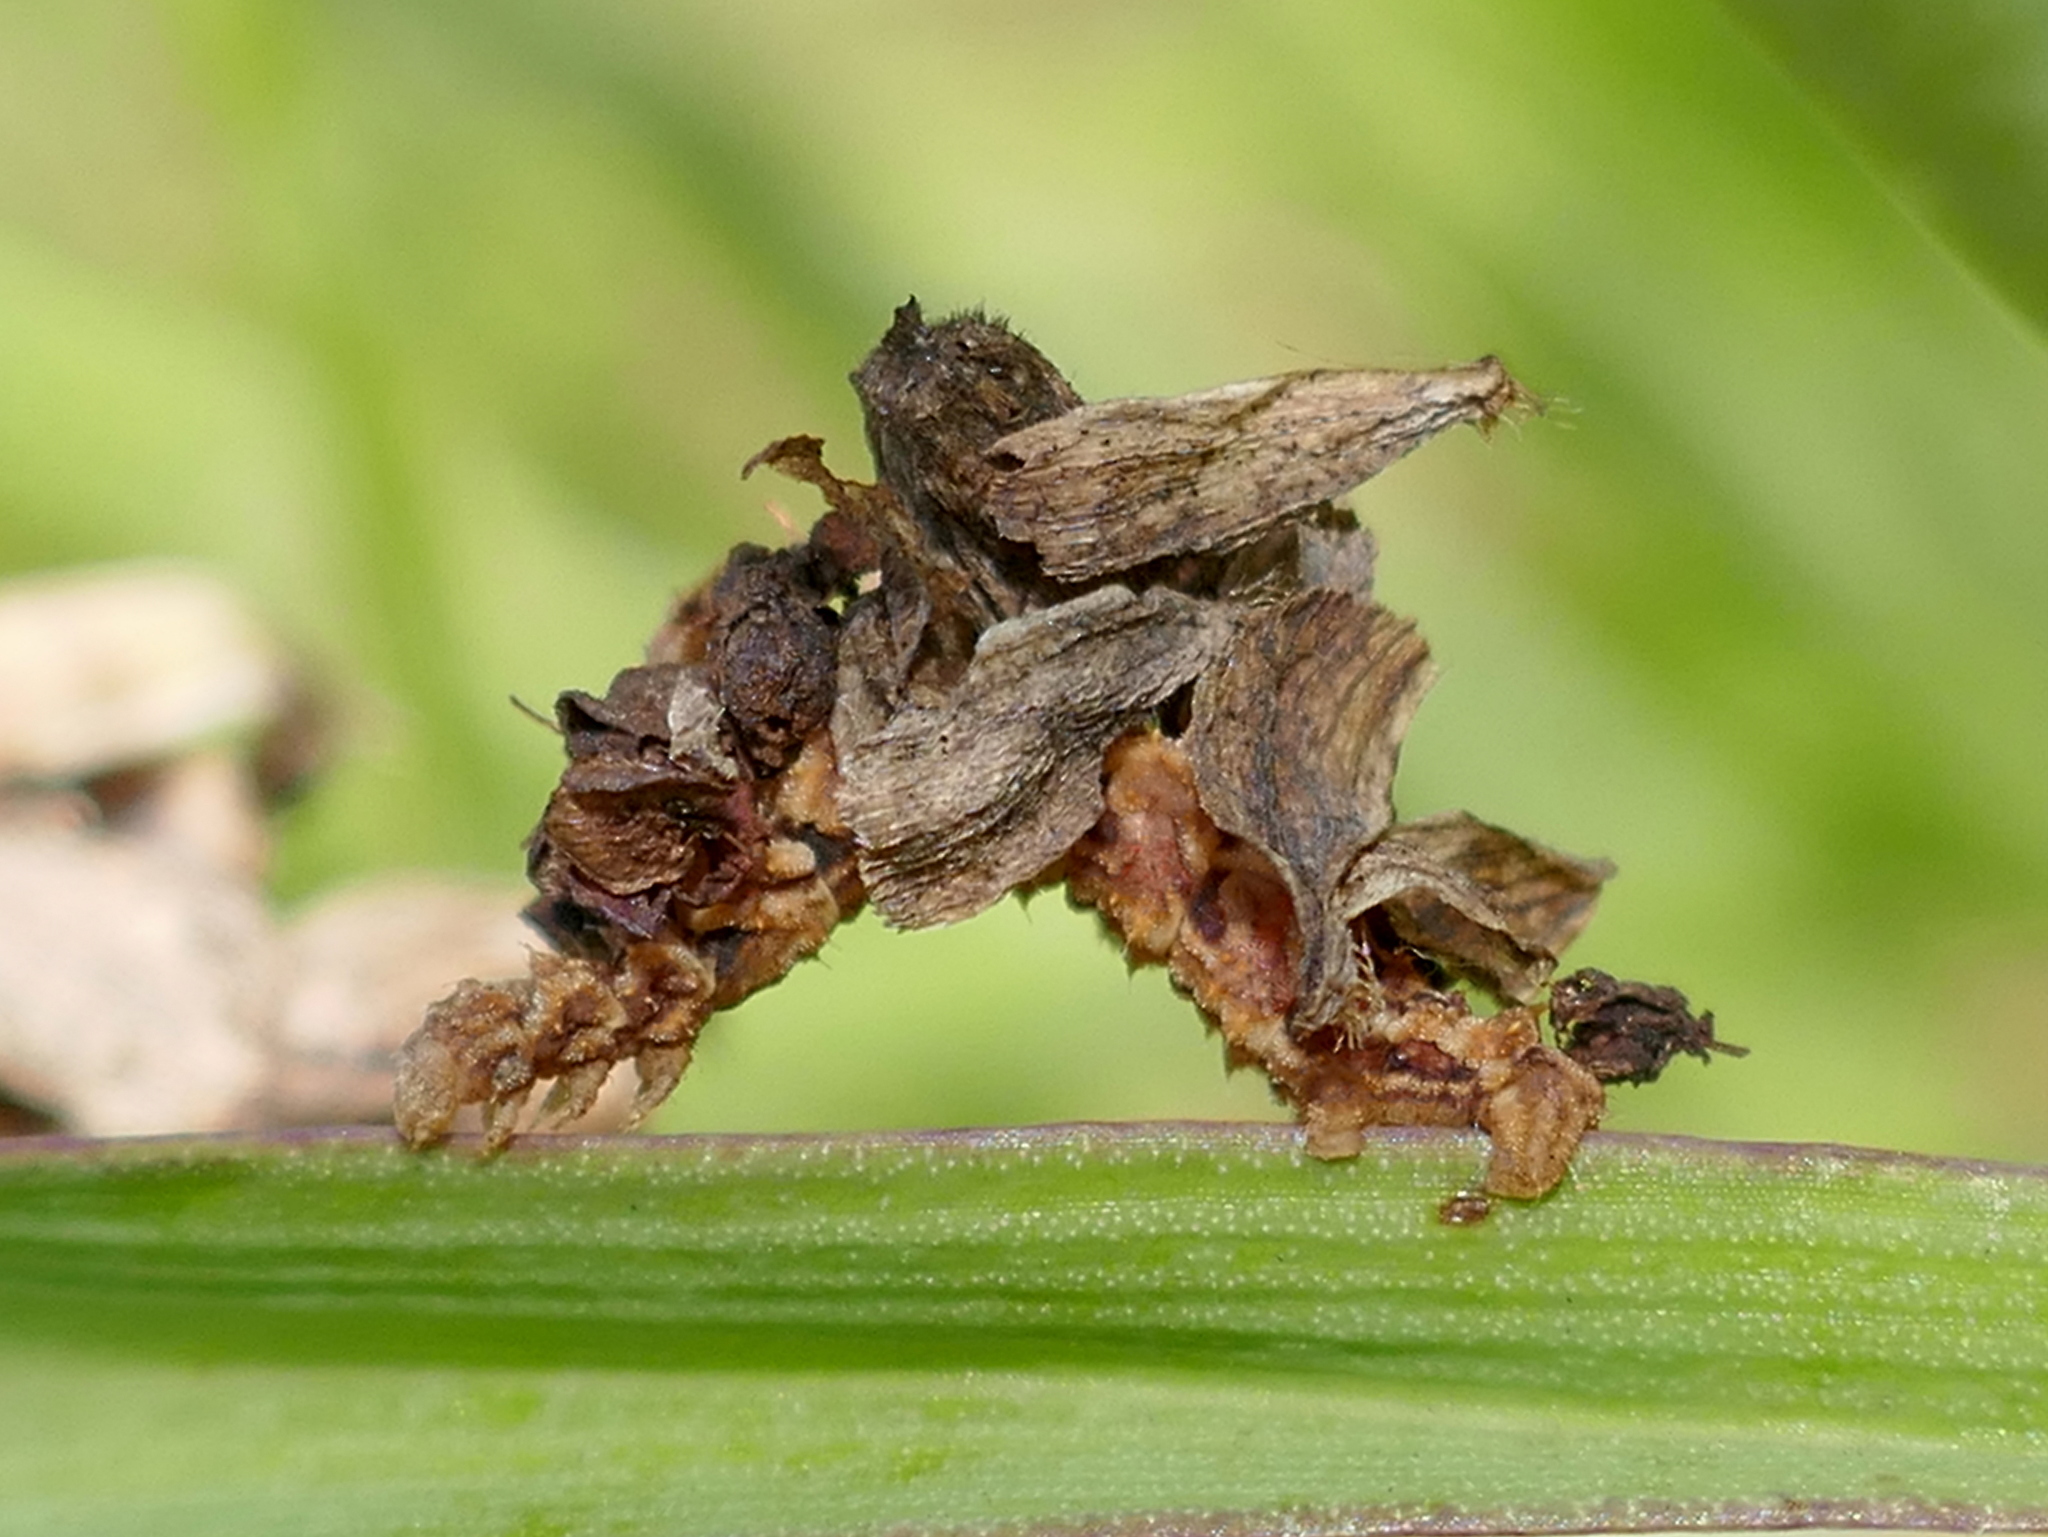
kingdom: Animalia
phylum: Arthropoda
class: Insecta
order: Lepidoptera
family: Geometridae
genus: Synchlora
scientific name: Synchlora frondaria
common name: Southern emerald
